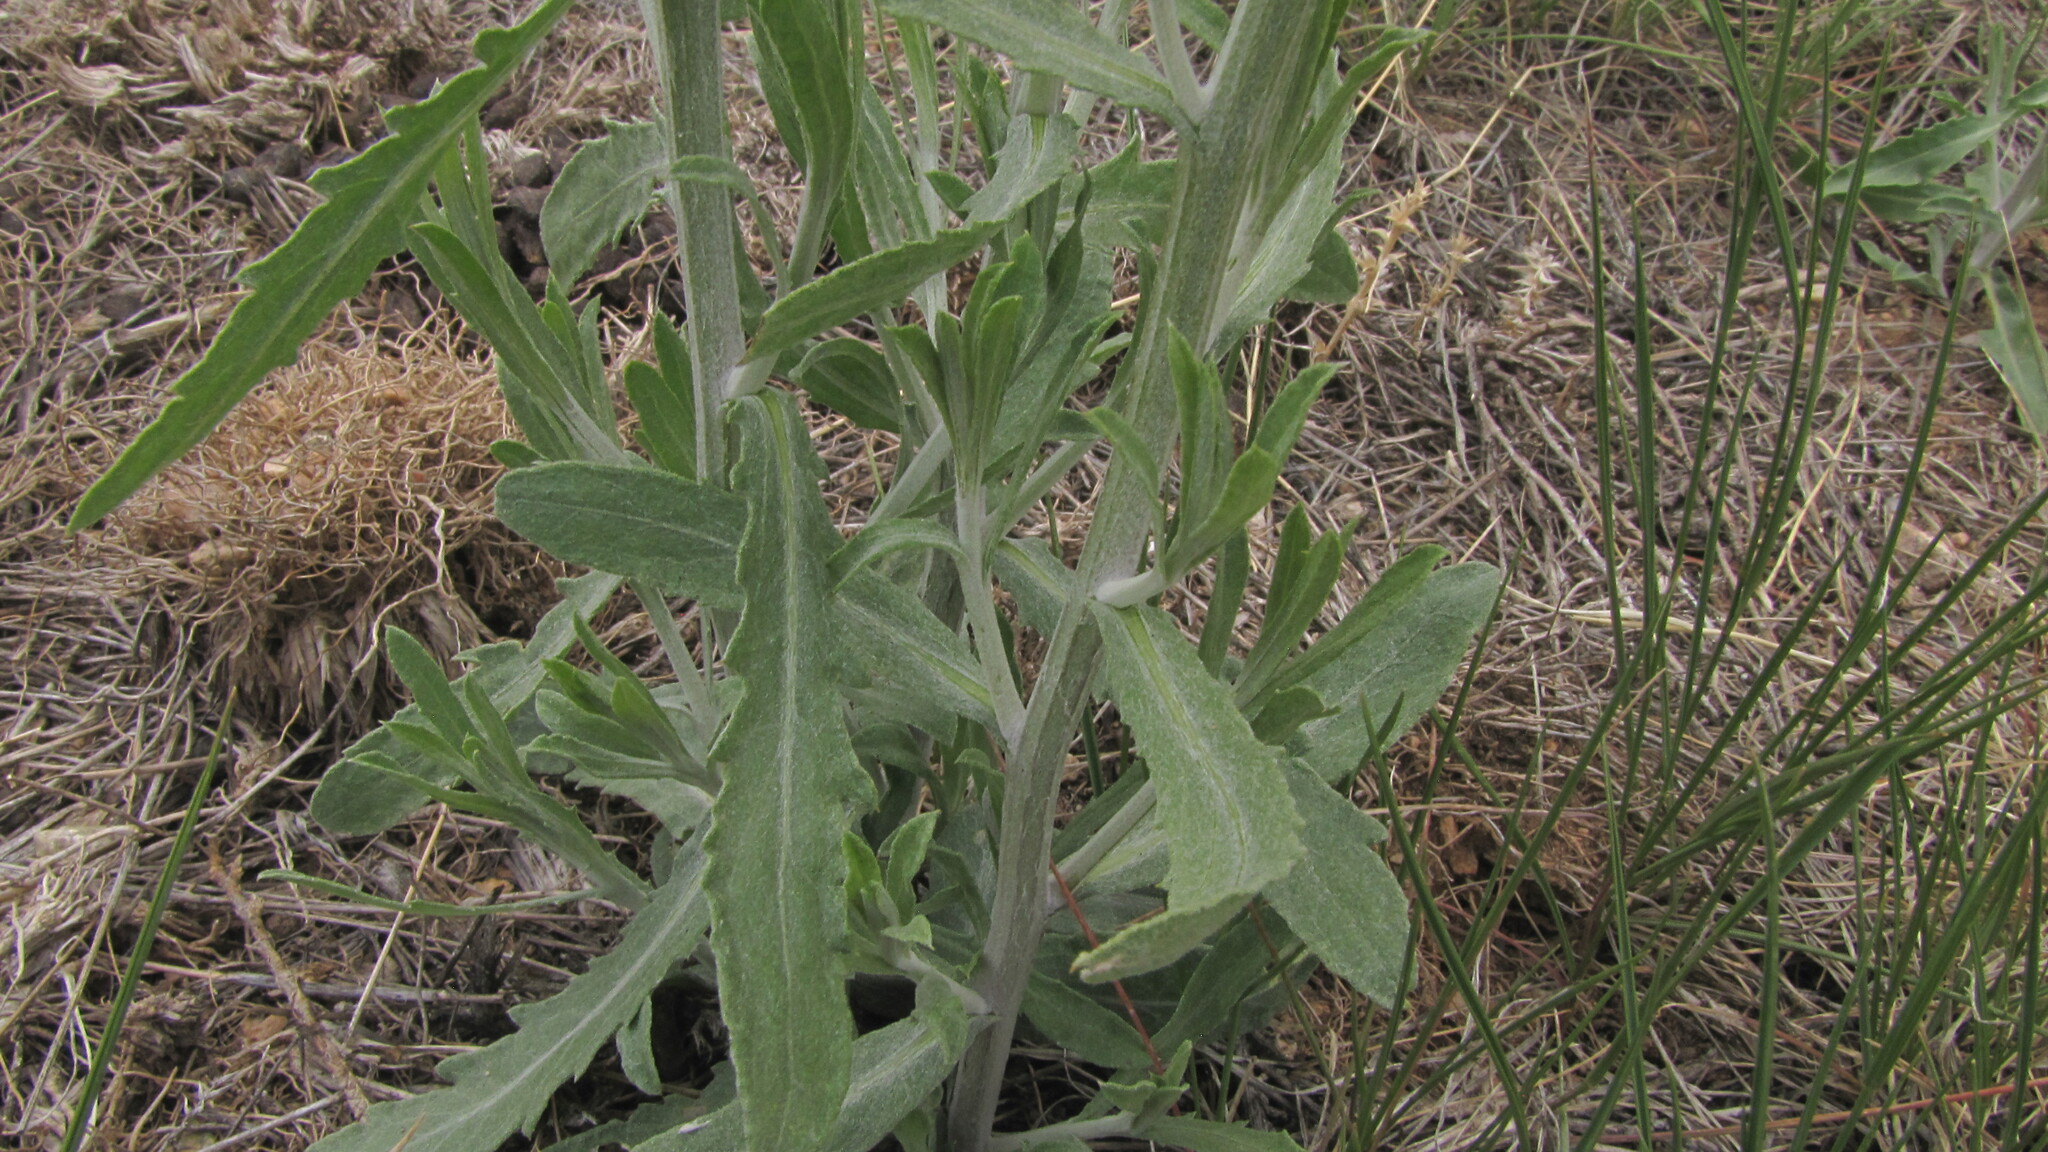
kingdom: Plantae
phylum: Tracheophyta
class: Magnoliopsida
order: Asterales
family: Asteraceae
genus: Leuzea
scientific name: Leuzea repens
